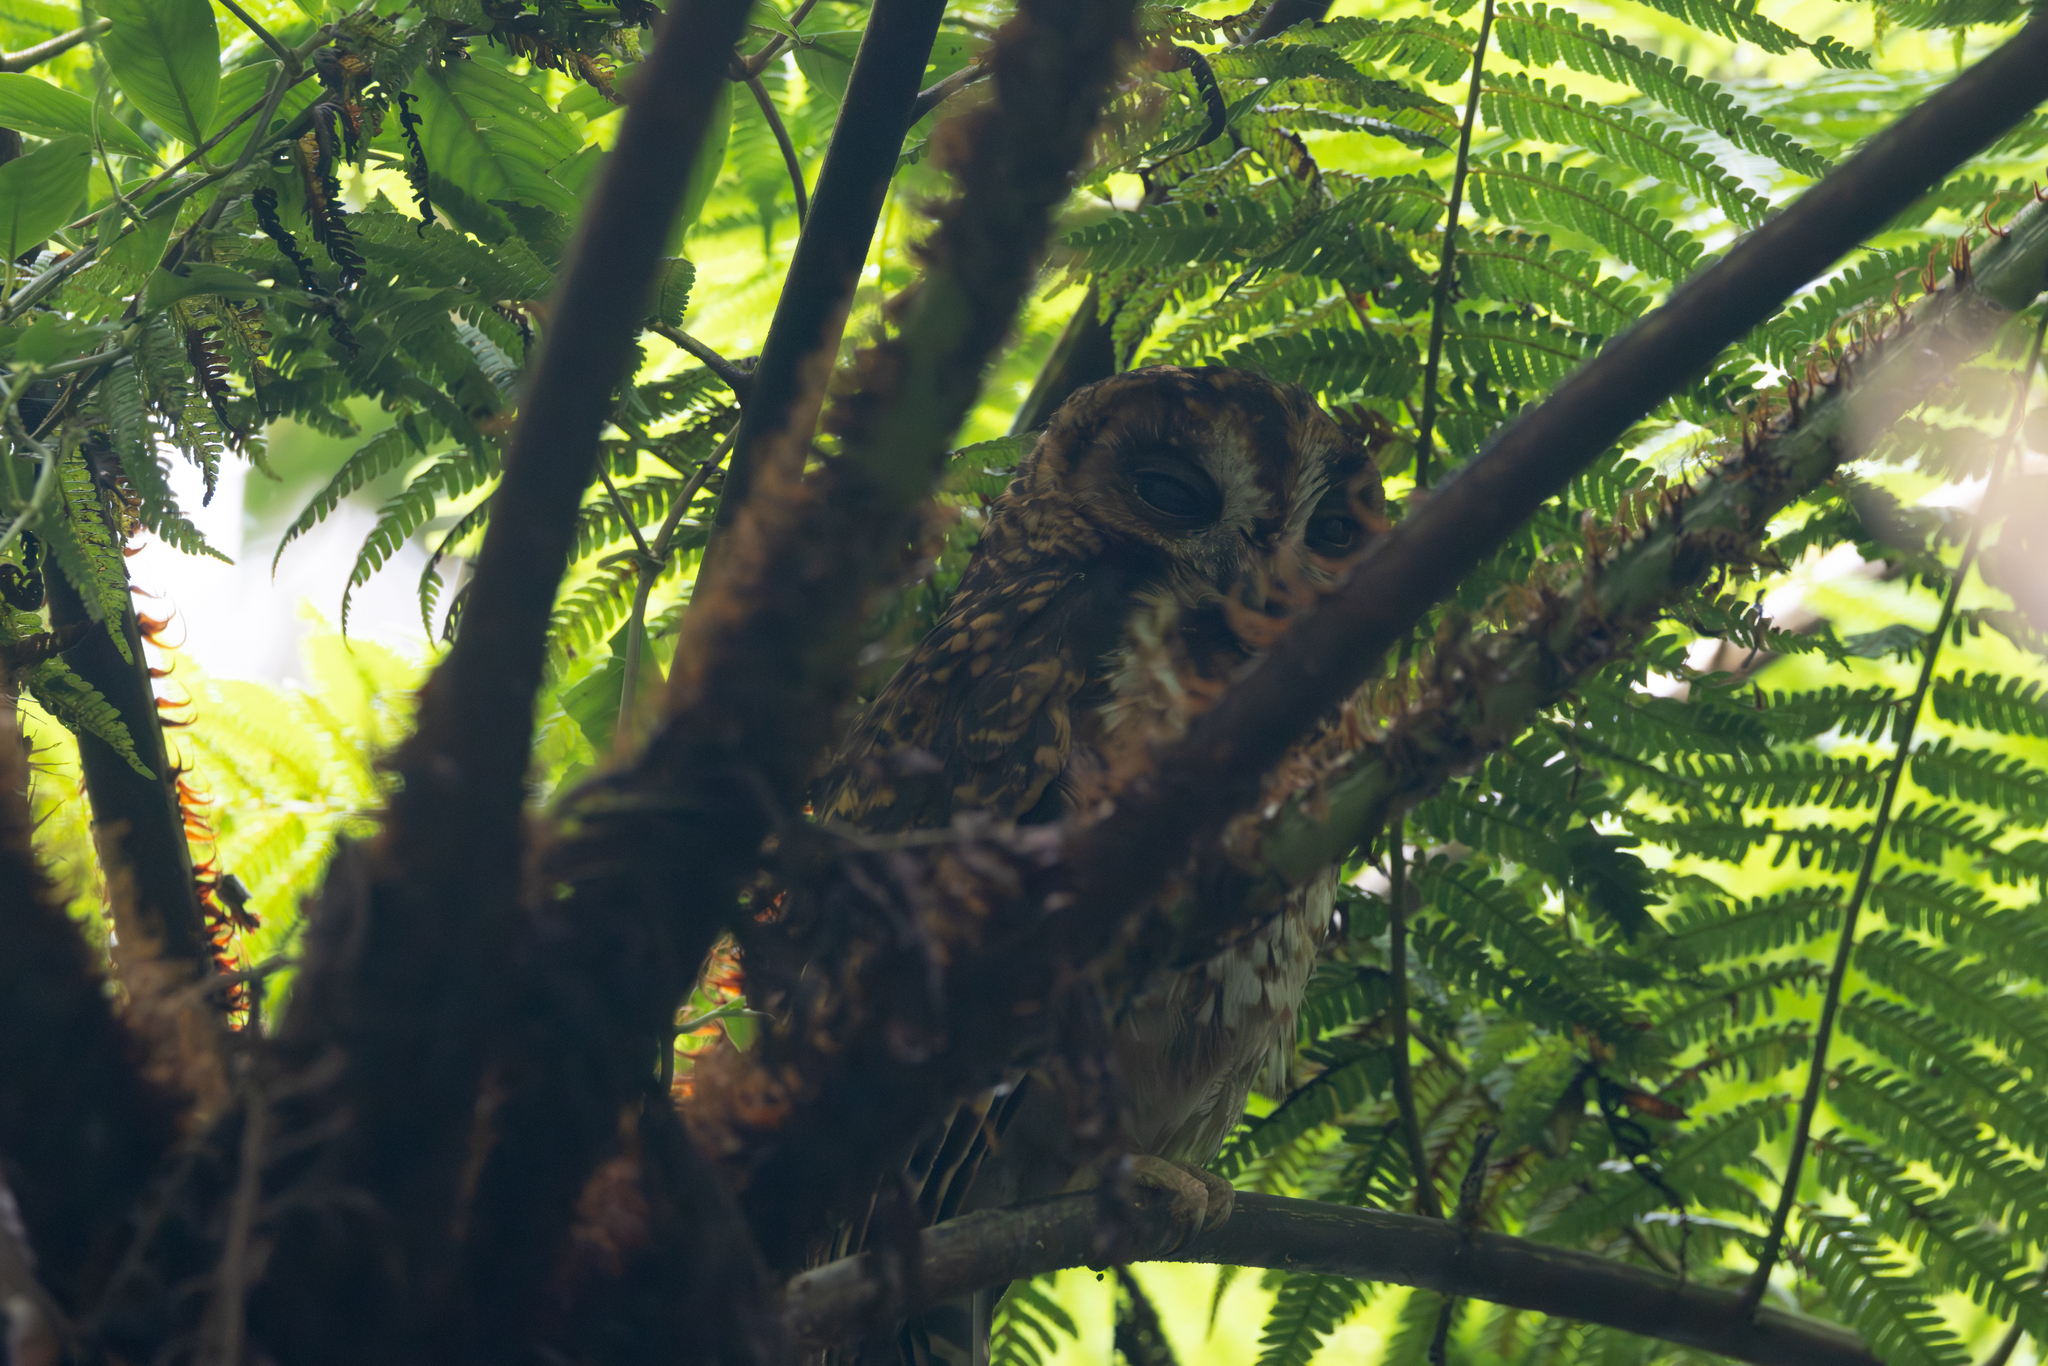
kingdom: Animalia
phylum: Chordata
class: Aves
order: Strigiformes
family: Strigidae
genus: Strix
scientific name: Strix albitarsis
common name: Rufous-banded owl
